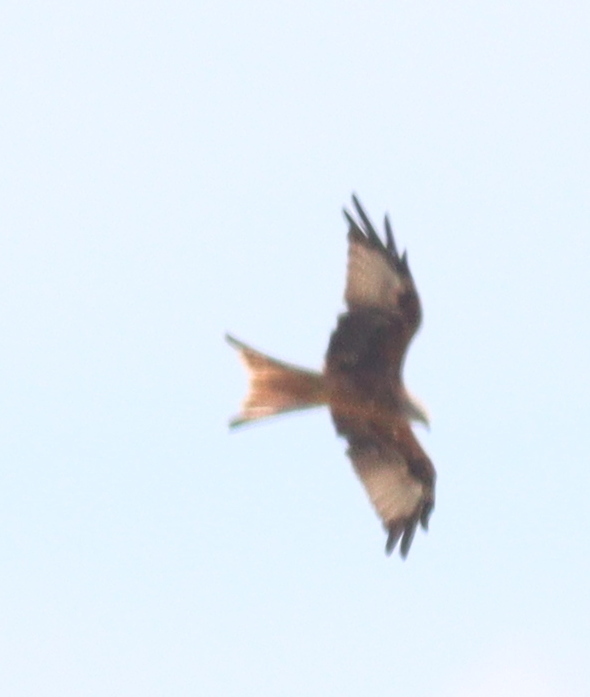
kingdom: Animalia
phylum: Chordata
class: Aves
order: Accipitriformes
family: Accipitridae
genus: Milvus
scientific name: Milvus milvus
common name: Red kite
